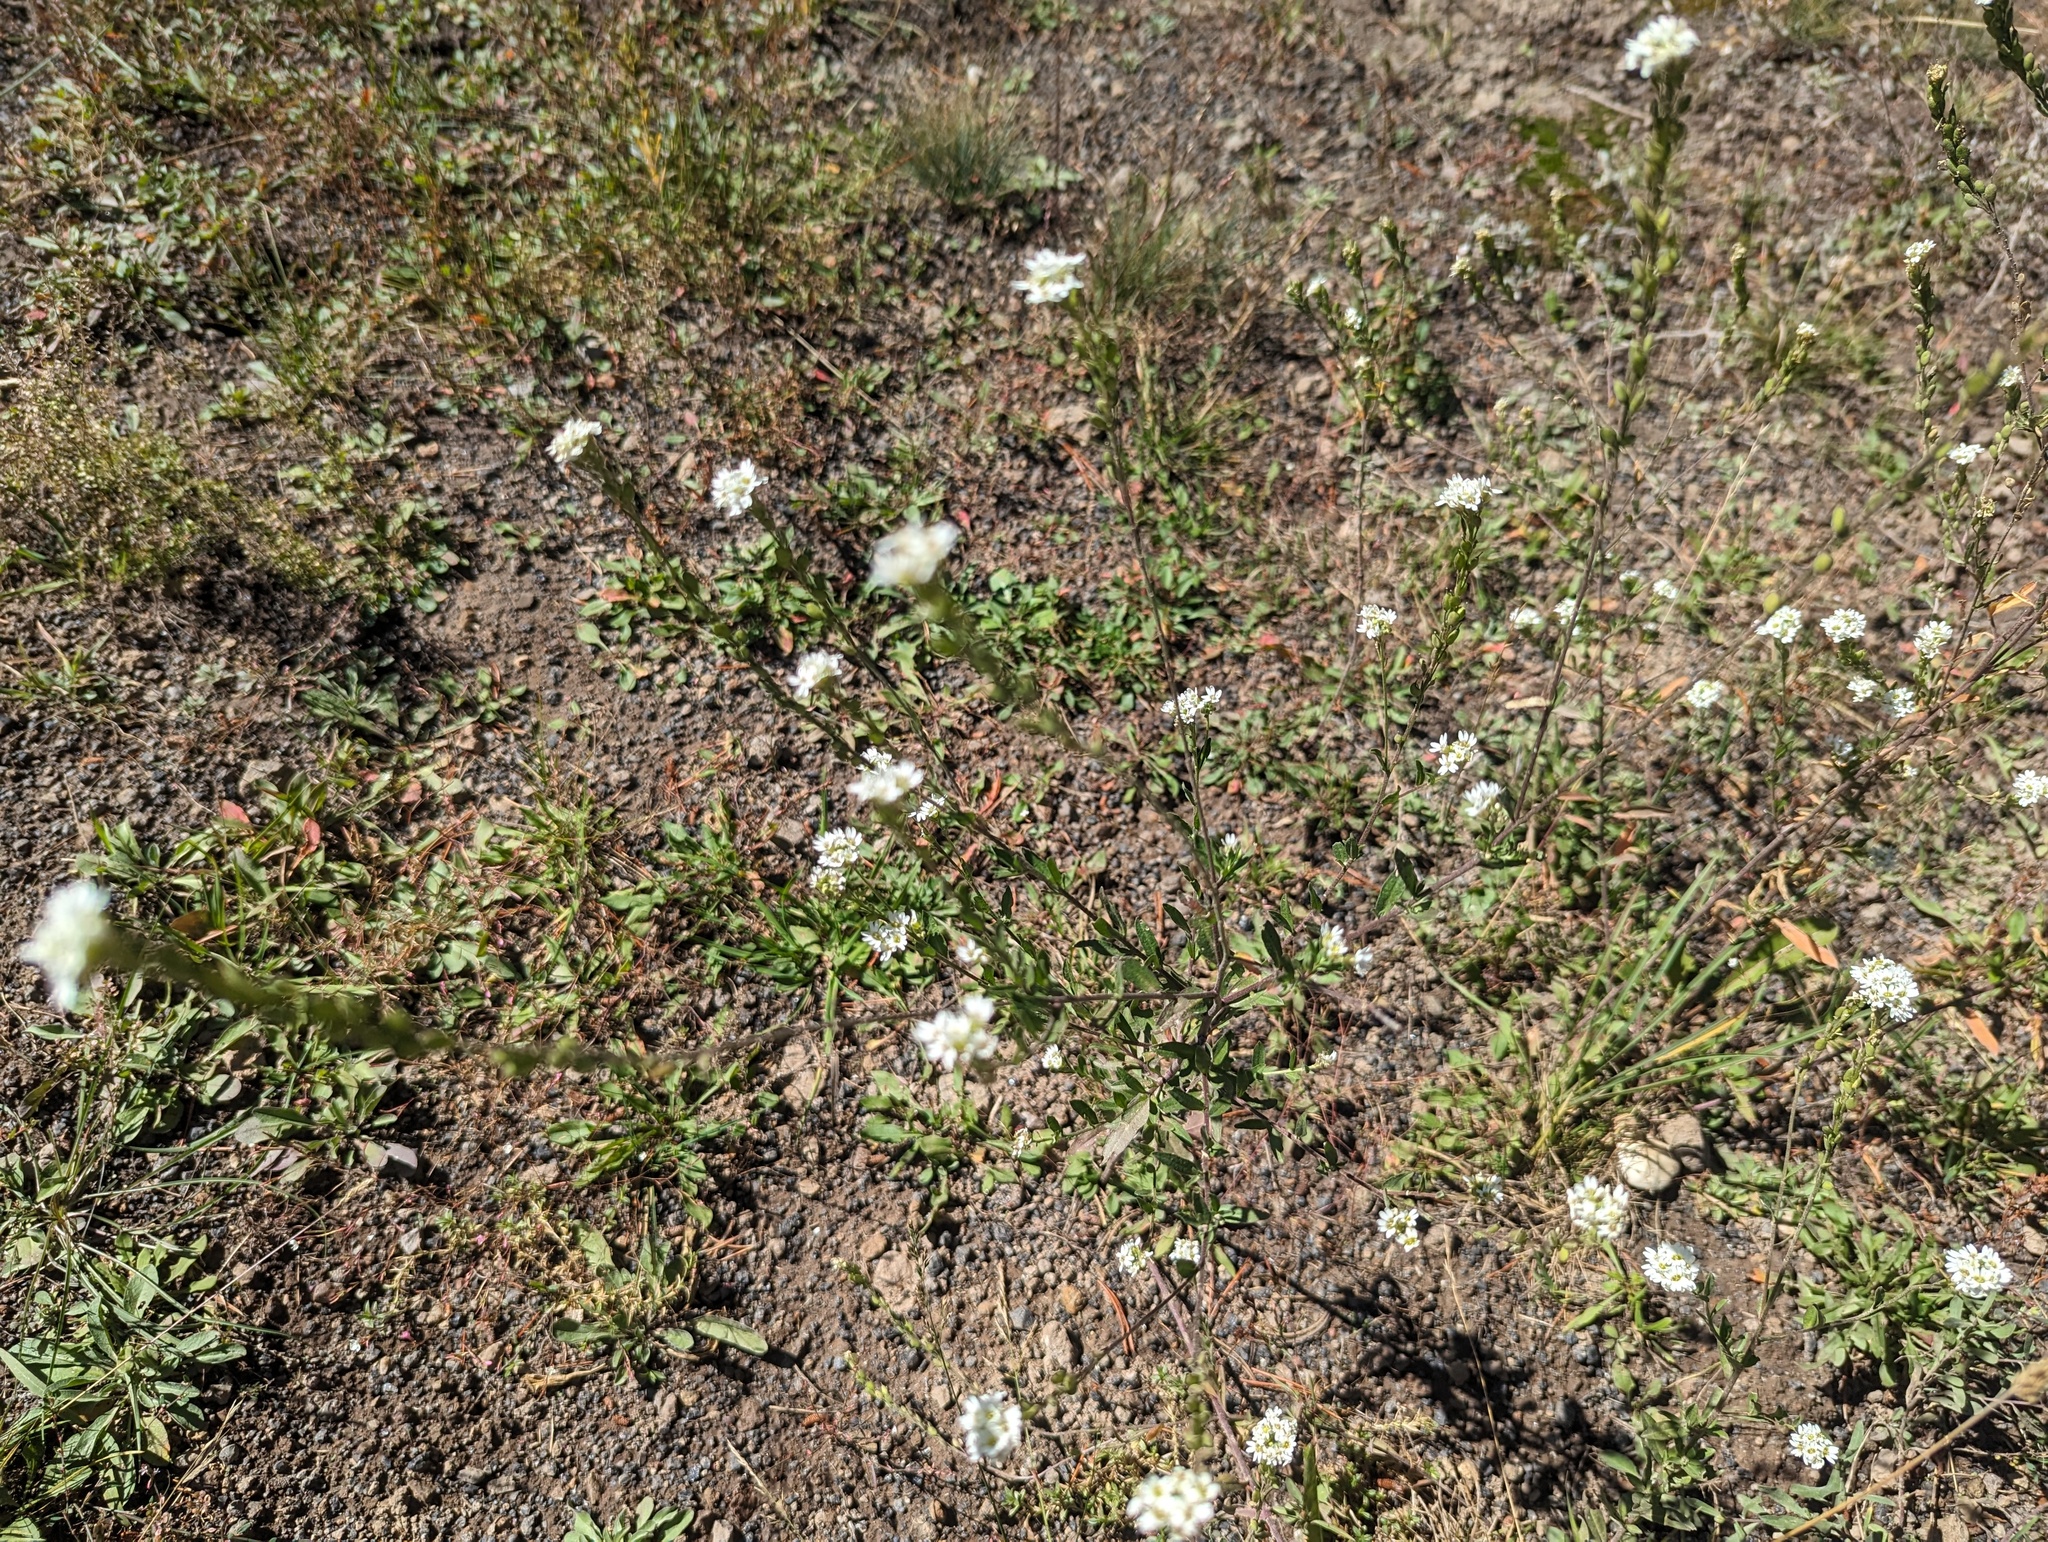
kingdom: Plantae
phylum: Tracheophyta
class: Magnoliopsida
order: Brassicales
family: Brassicaceae
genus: Berteroa
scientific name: Berteroa incana
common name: Hoary alison
